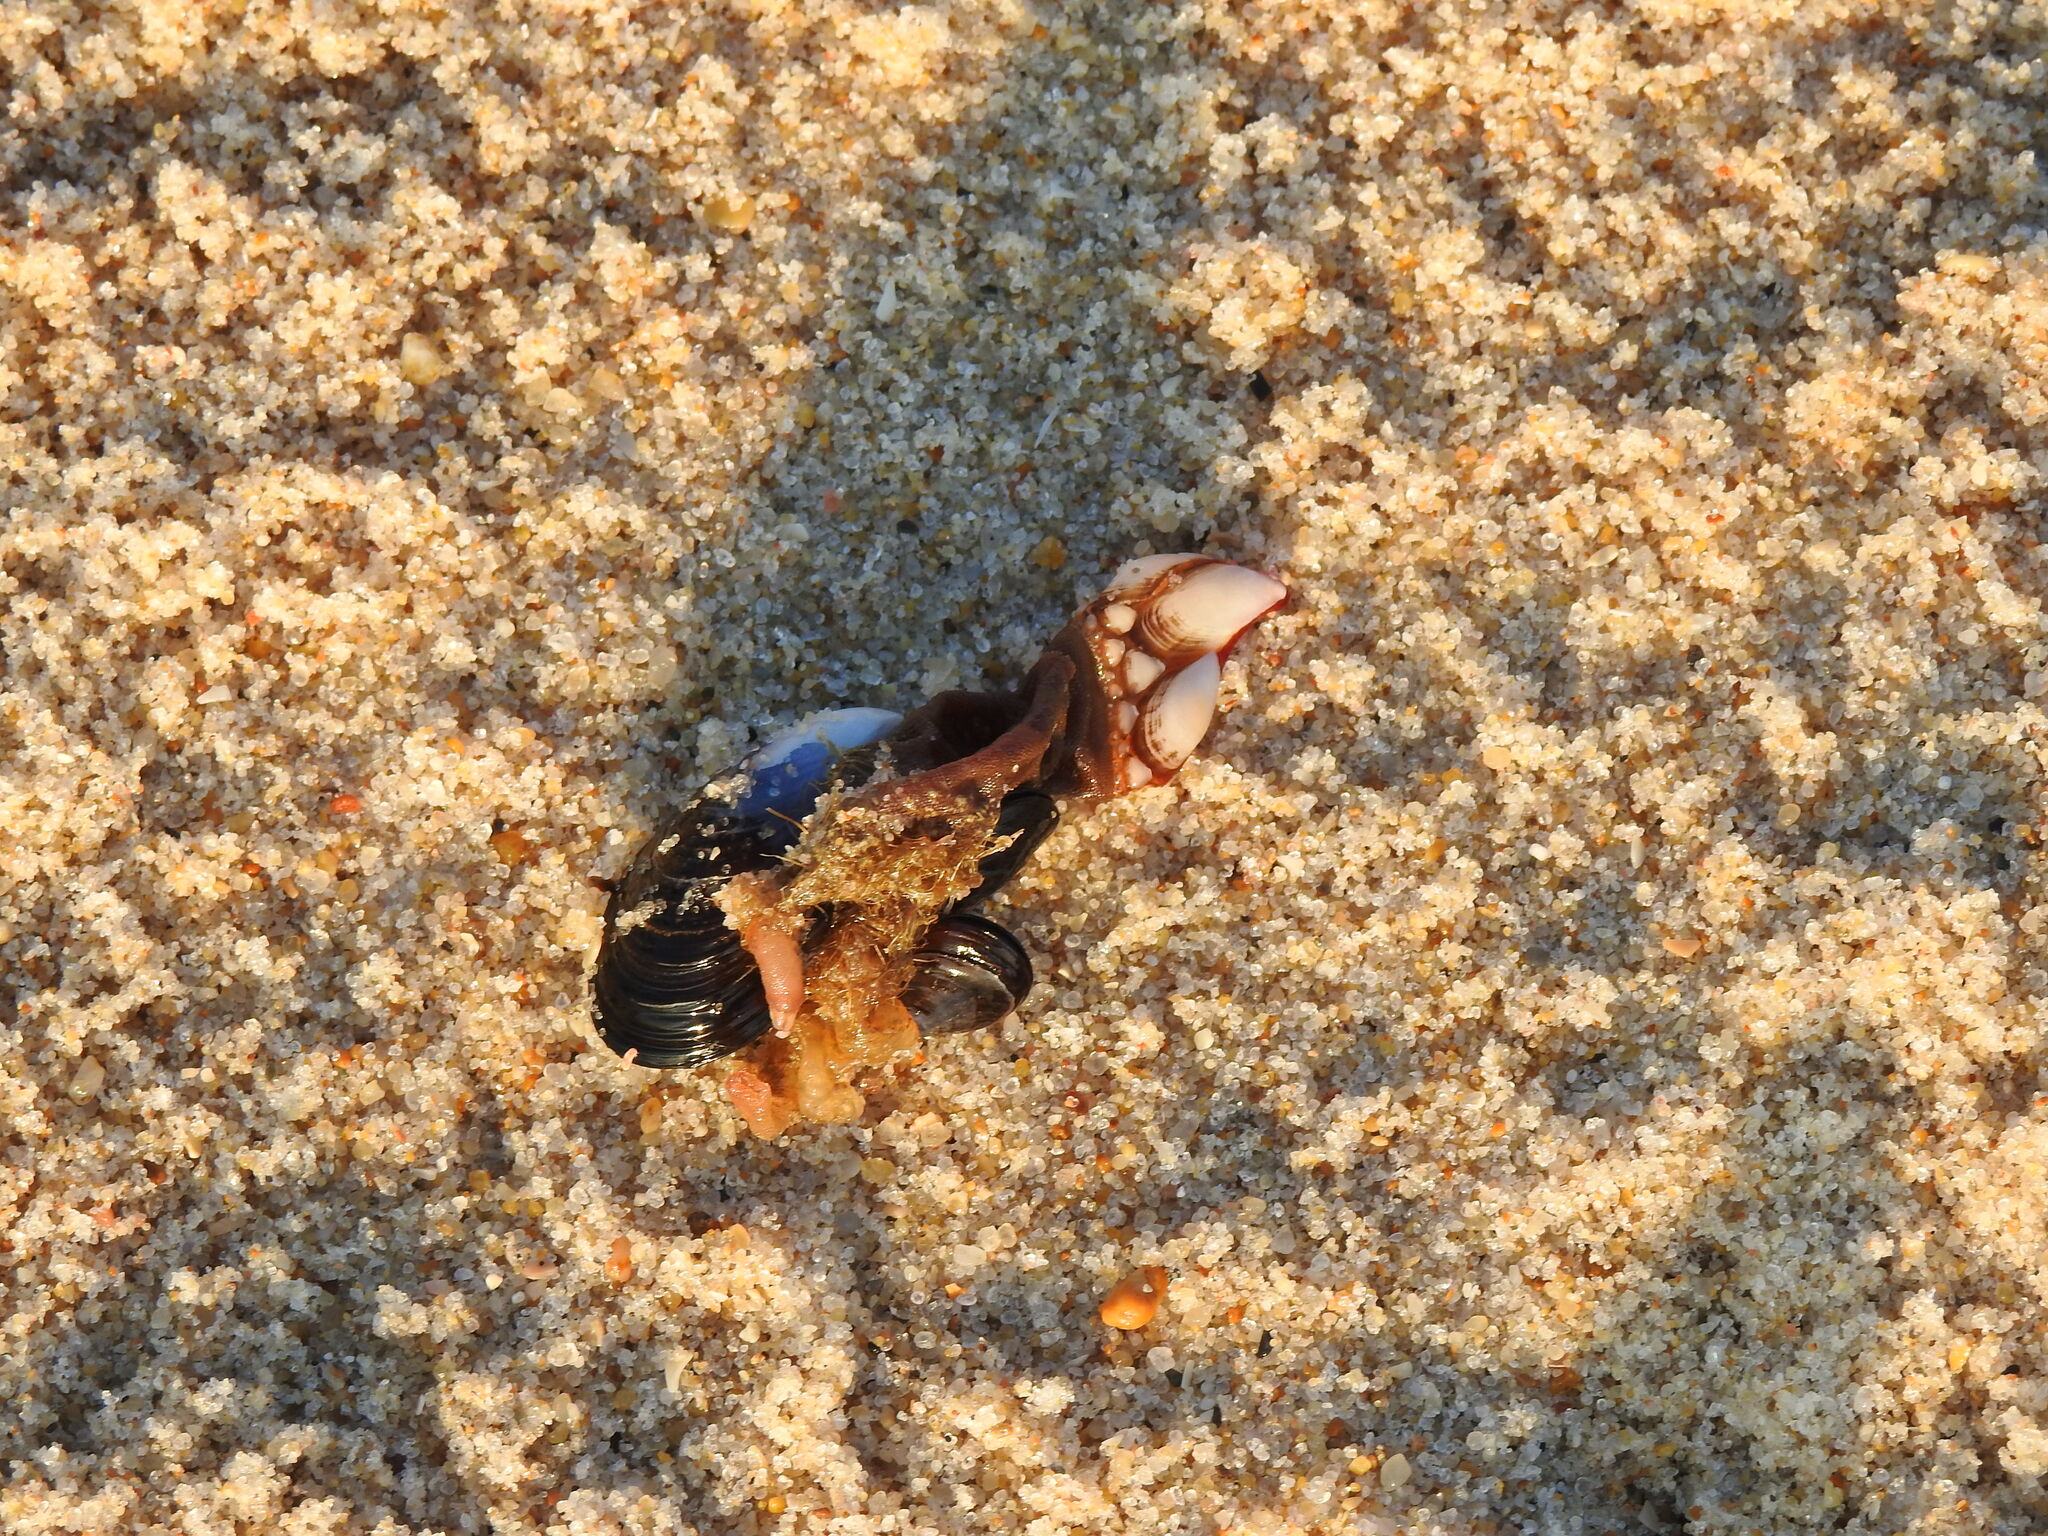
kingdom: Animalia
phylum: Arthropoda
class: Maxillopoda
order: Pedunculata
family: Pollicipedidae
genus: Pollicipes
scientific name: Pollicipes pollicipes
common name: Gooseneck barnacle
